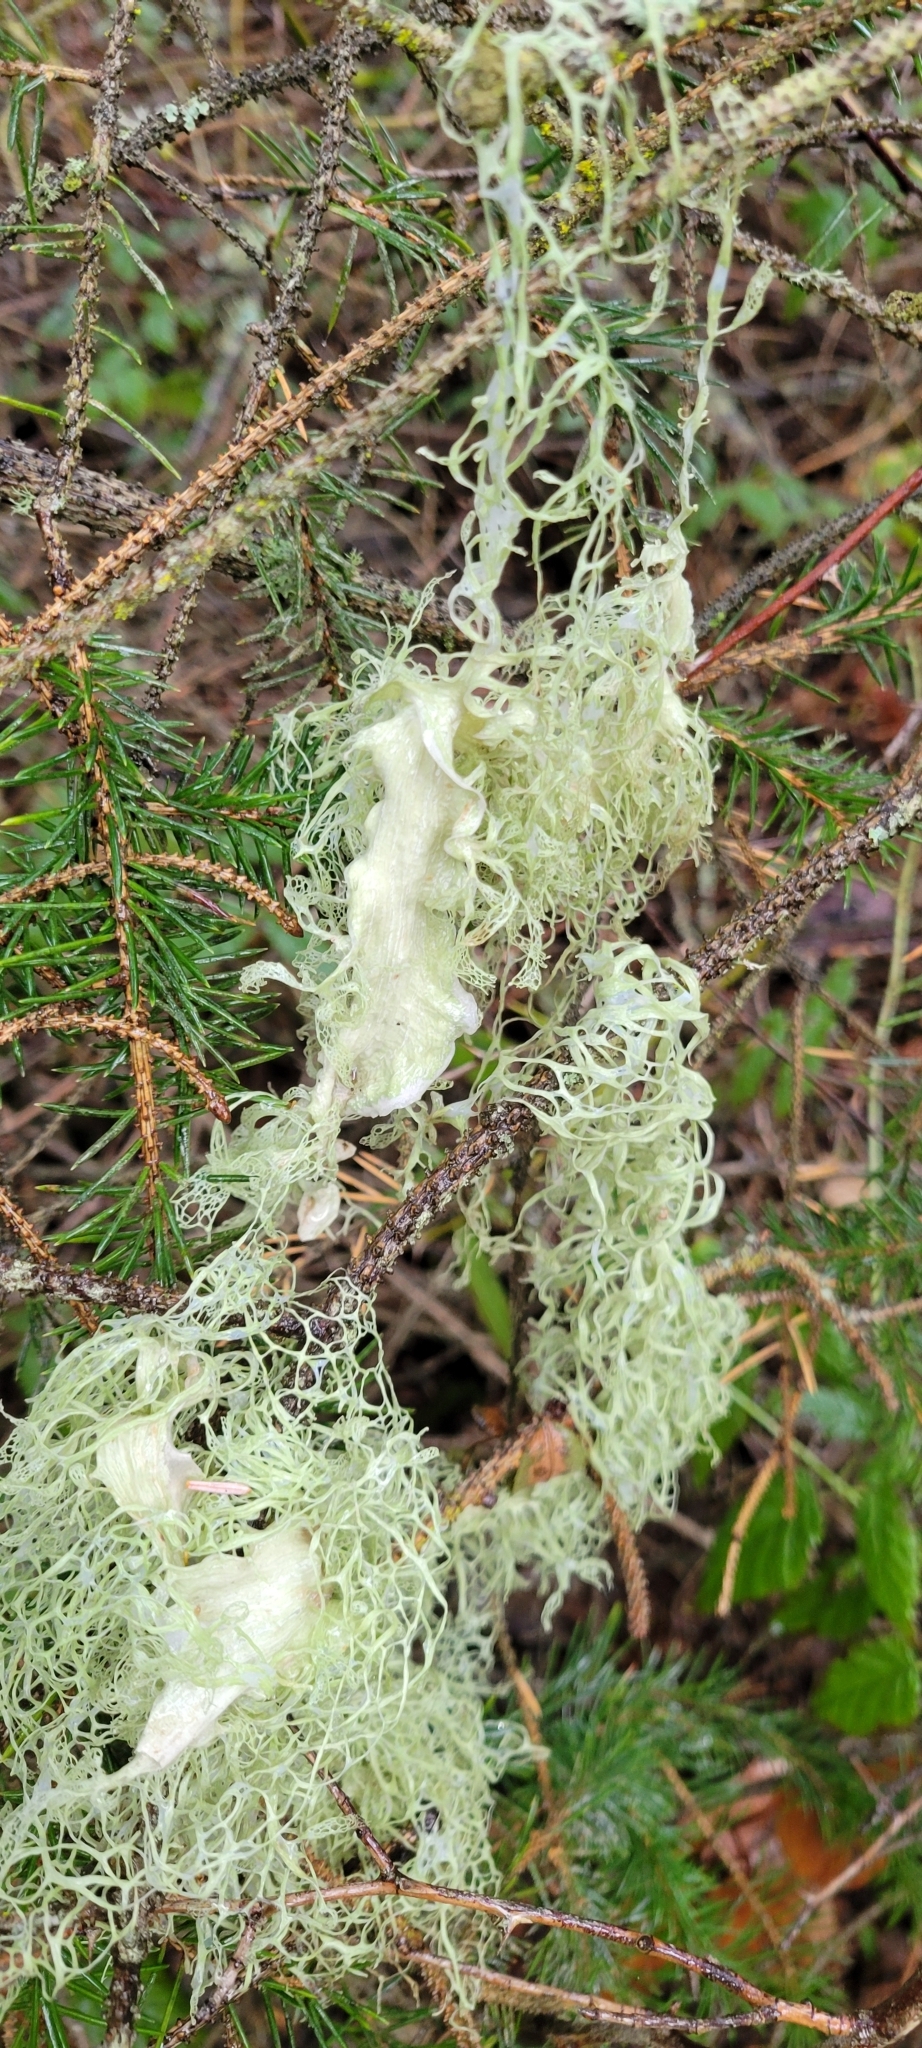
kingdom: Fungi
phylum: Ascomycota
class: Lecanoromycetes
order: Lecanorales
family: Ramalinaceae
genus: Ramalina
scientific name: Ramalina menziesii
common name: Lace lichen
